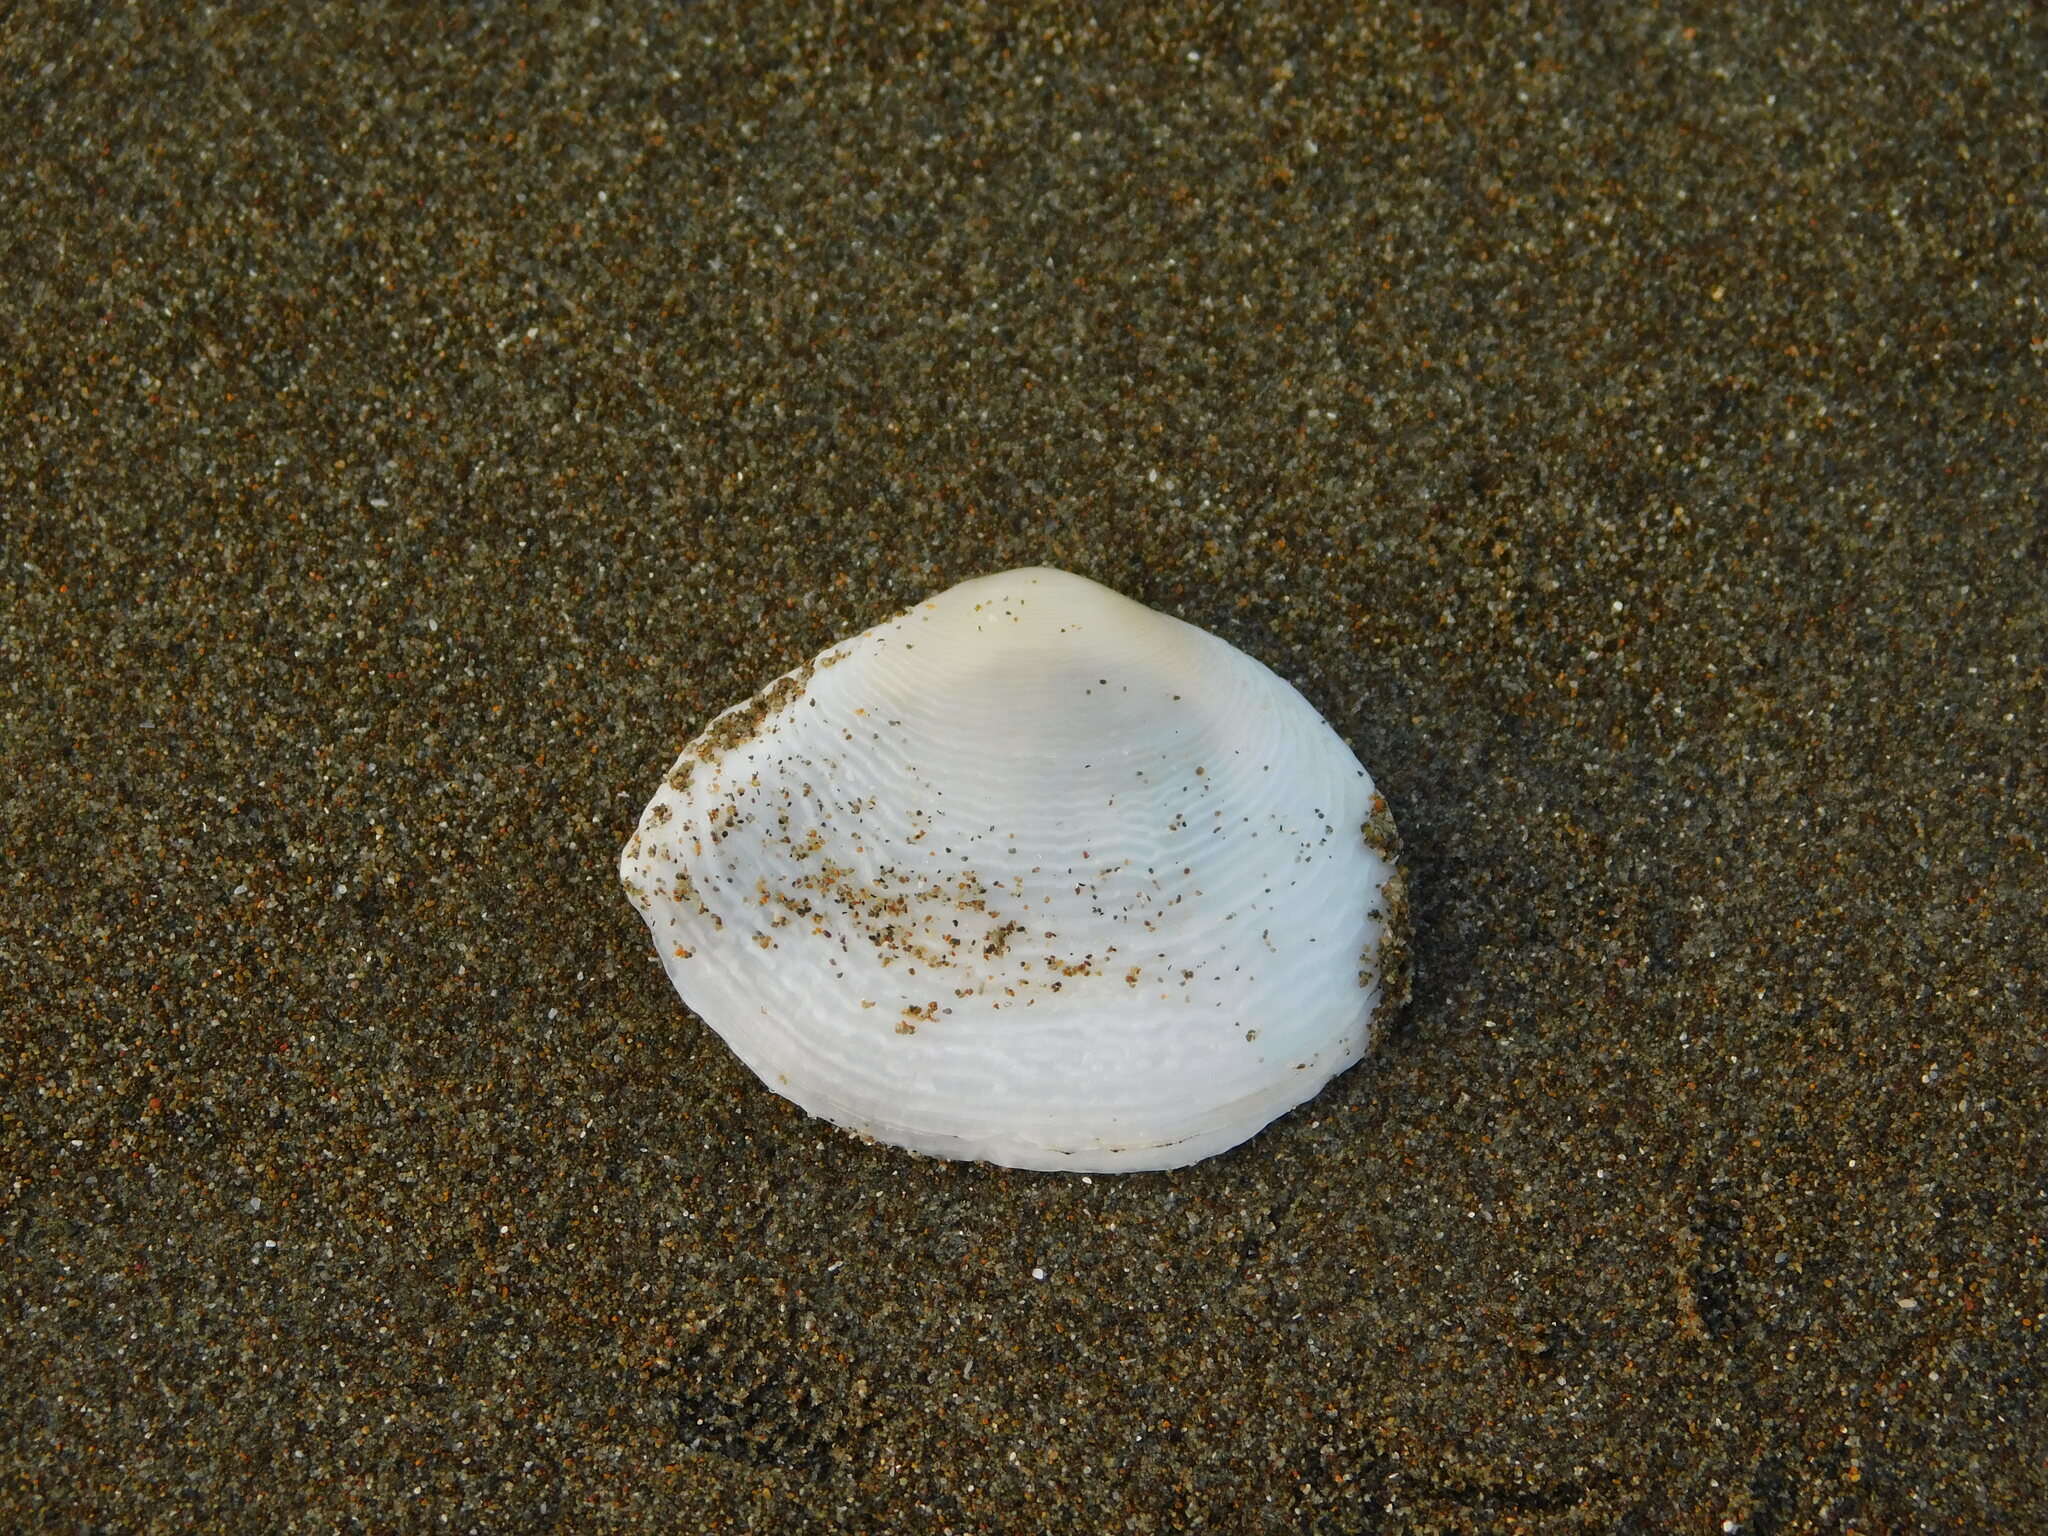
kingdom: Animalia
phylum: Mollusca
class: Bivalvia
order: Cardiida
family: Tellinidae
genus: Quidnipagus
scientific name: Quidnipagus palatam
